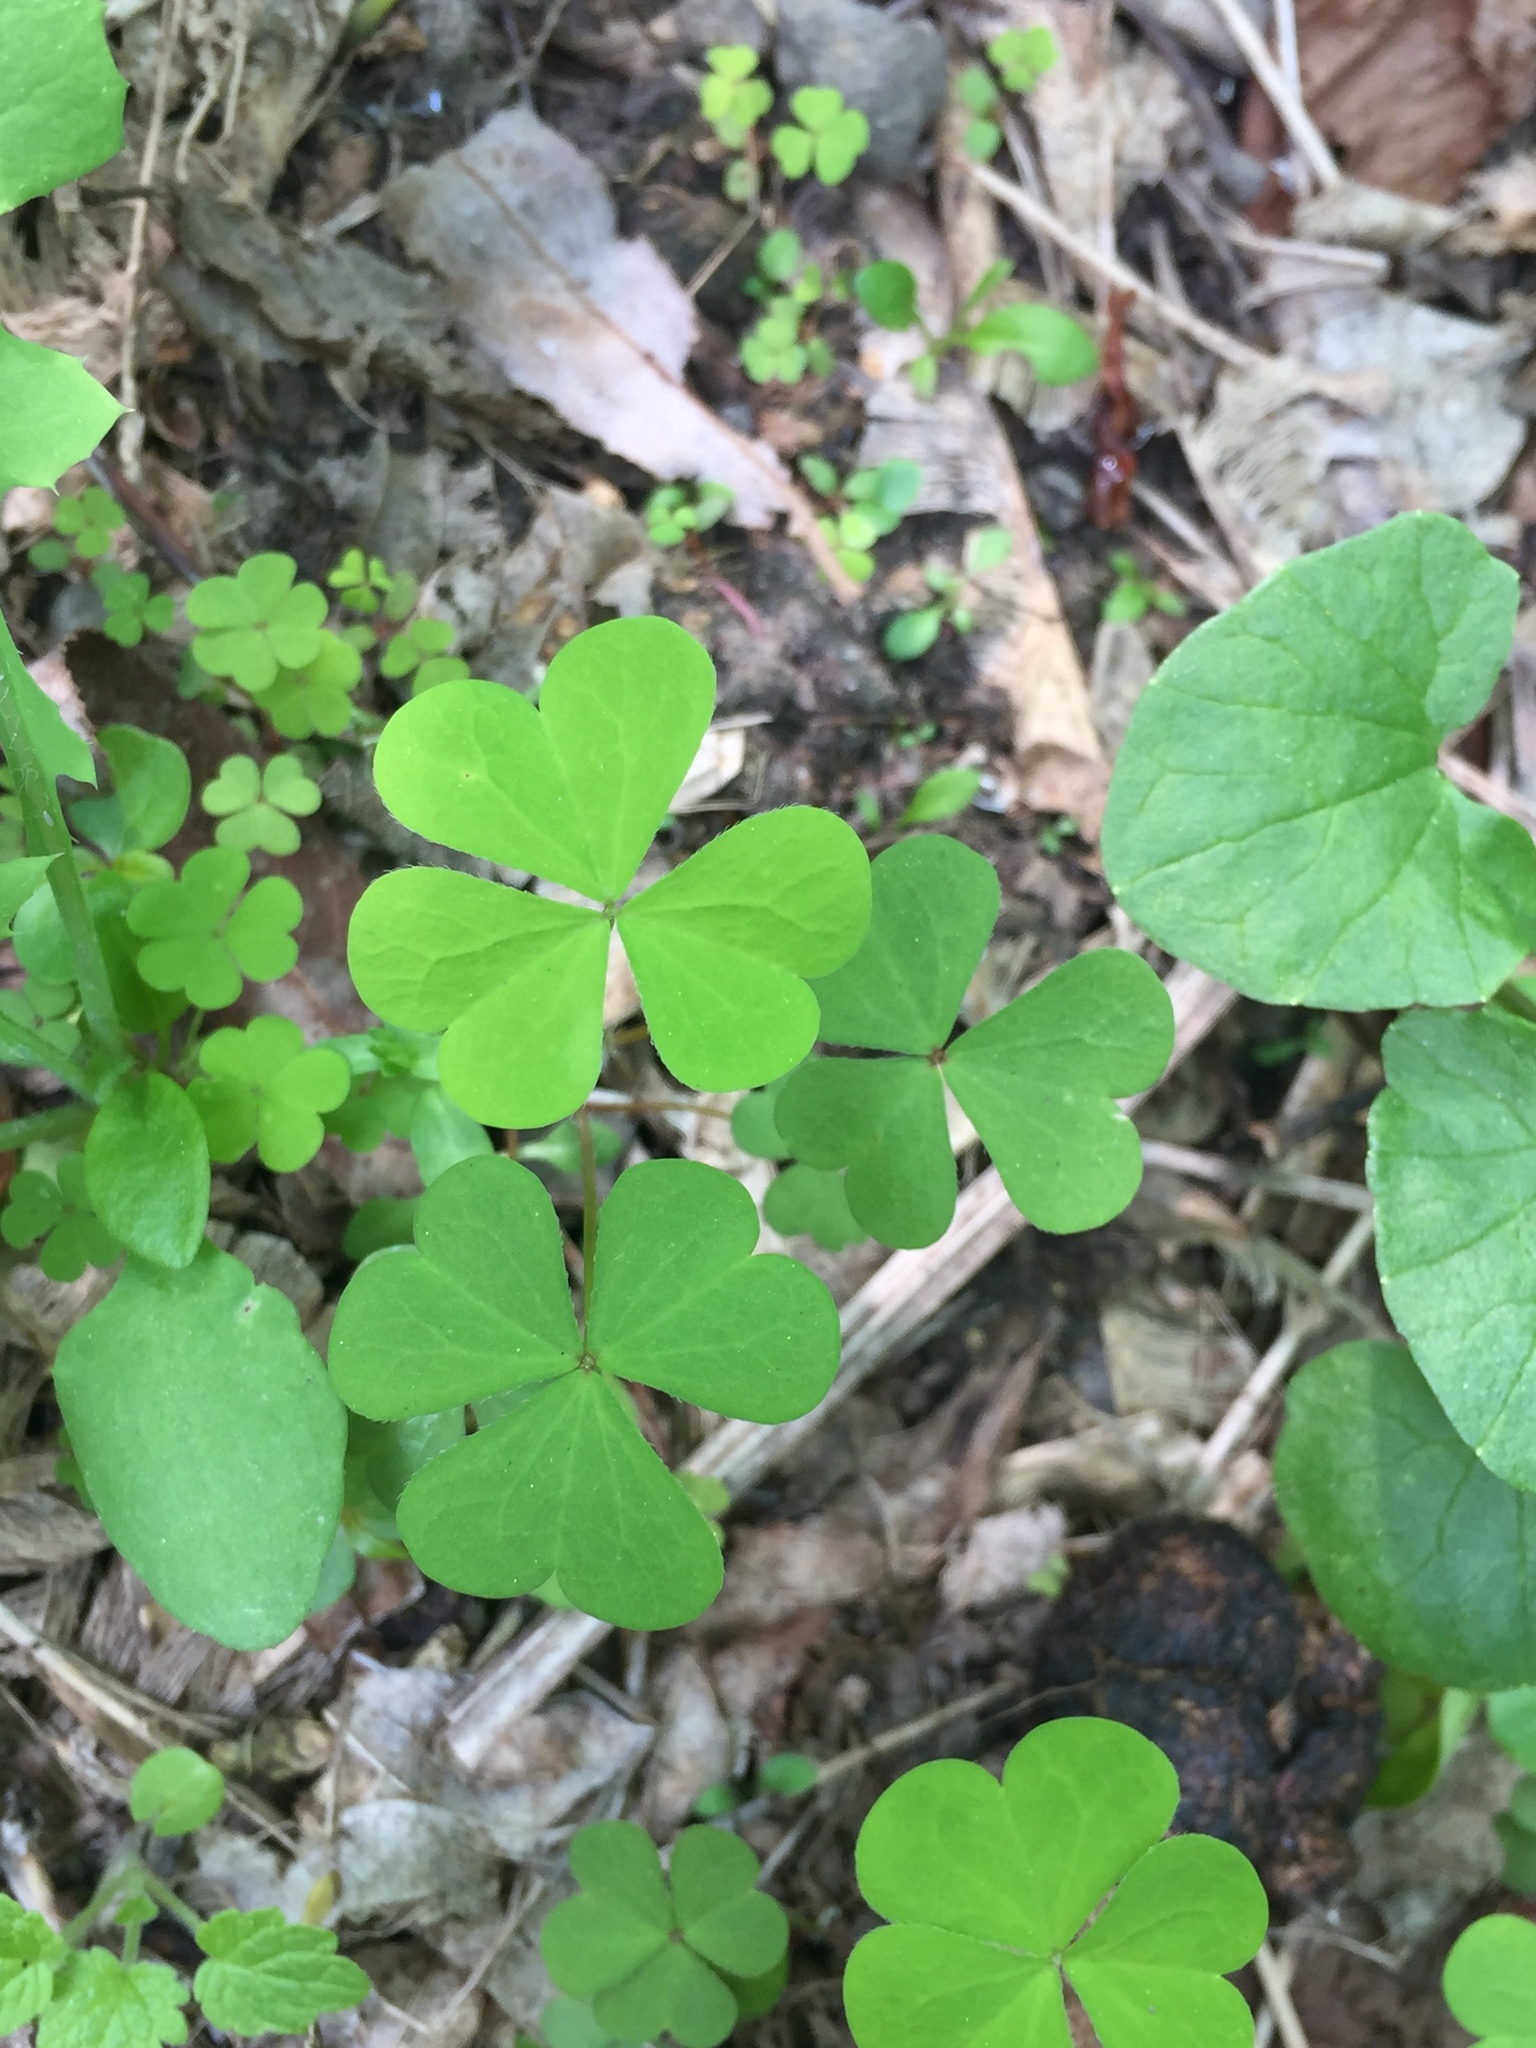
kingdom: Plantae
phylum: Tracheophyta
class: Magnoliopsida
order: Oxalidales
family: Oxalidaceae
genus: Oxalis
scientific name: Oxalis stricta
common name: Upright yellow-sorrel
